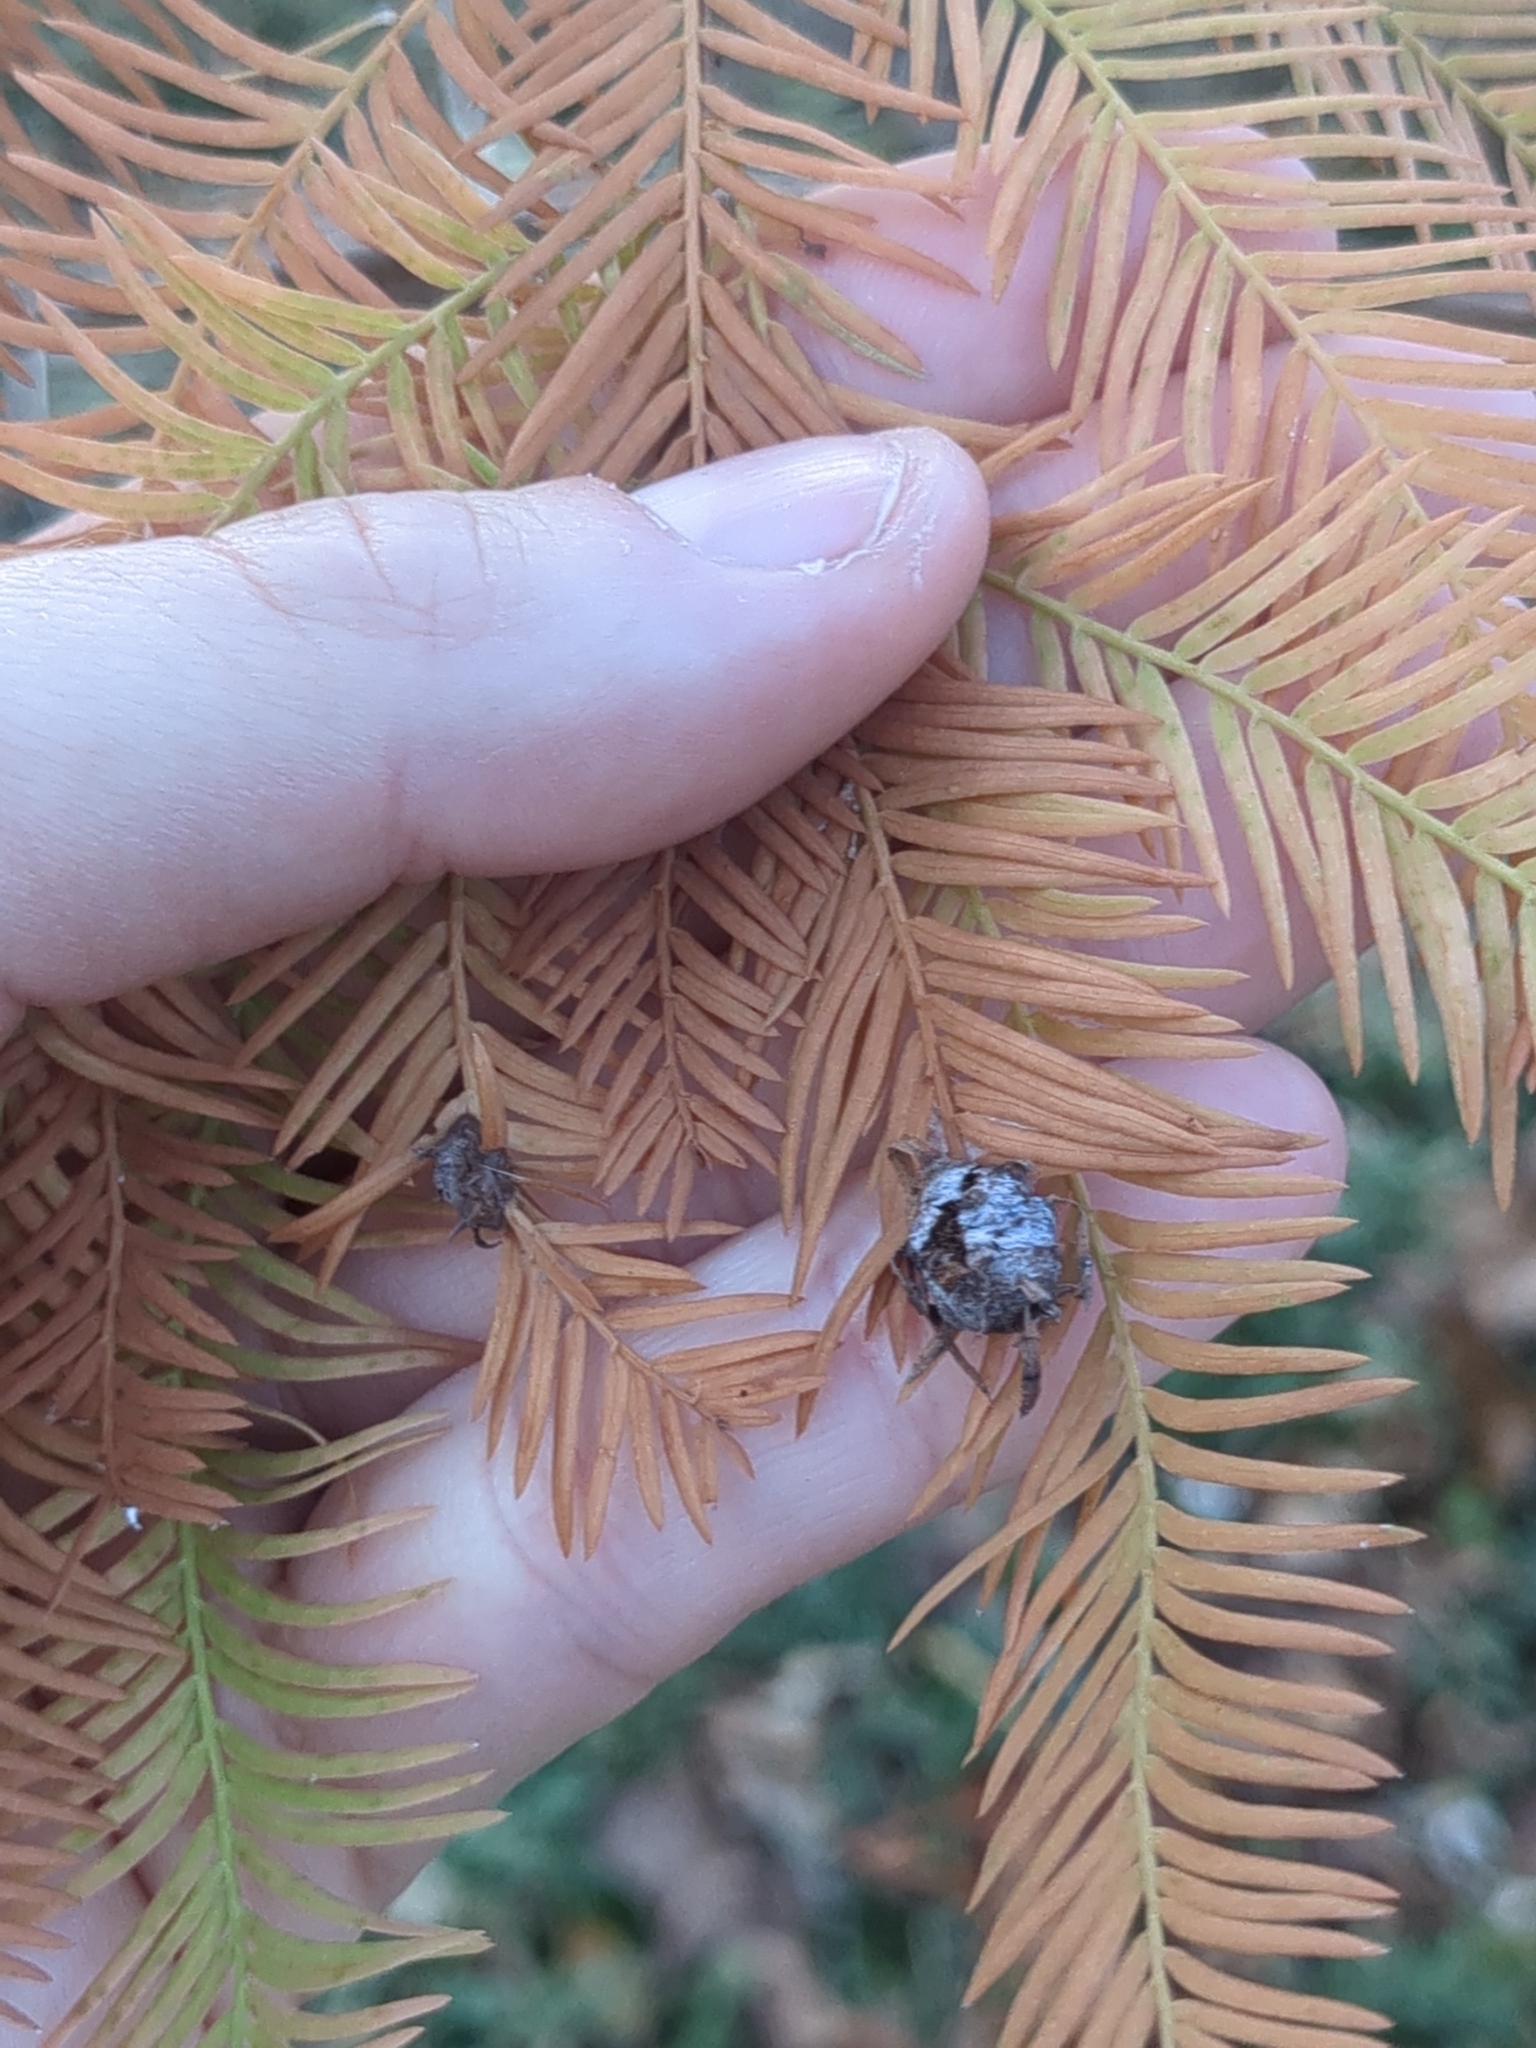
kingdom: Animalia
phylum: Arthropoda
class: Insecta
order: Diptera
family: Cecidomyiidae
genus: Taxodiomyia
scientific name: Taxodiomyia cupressiananassa
